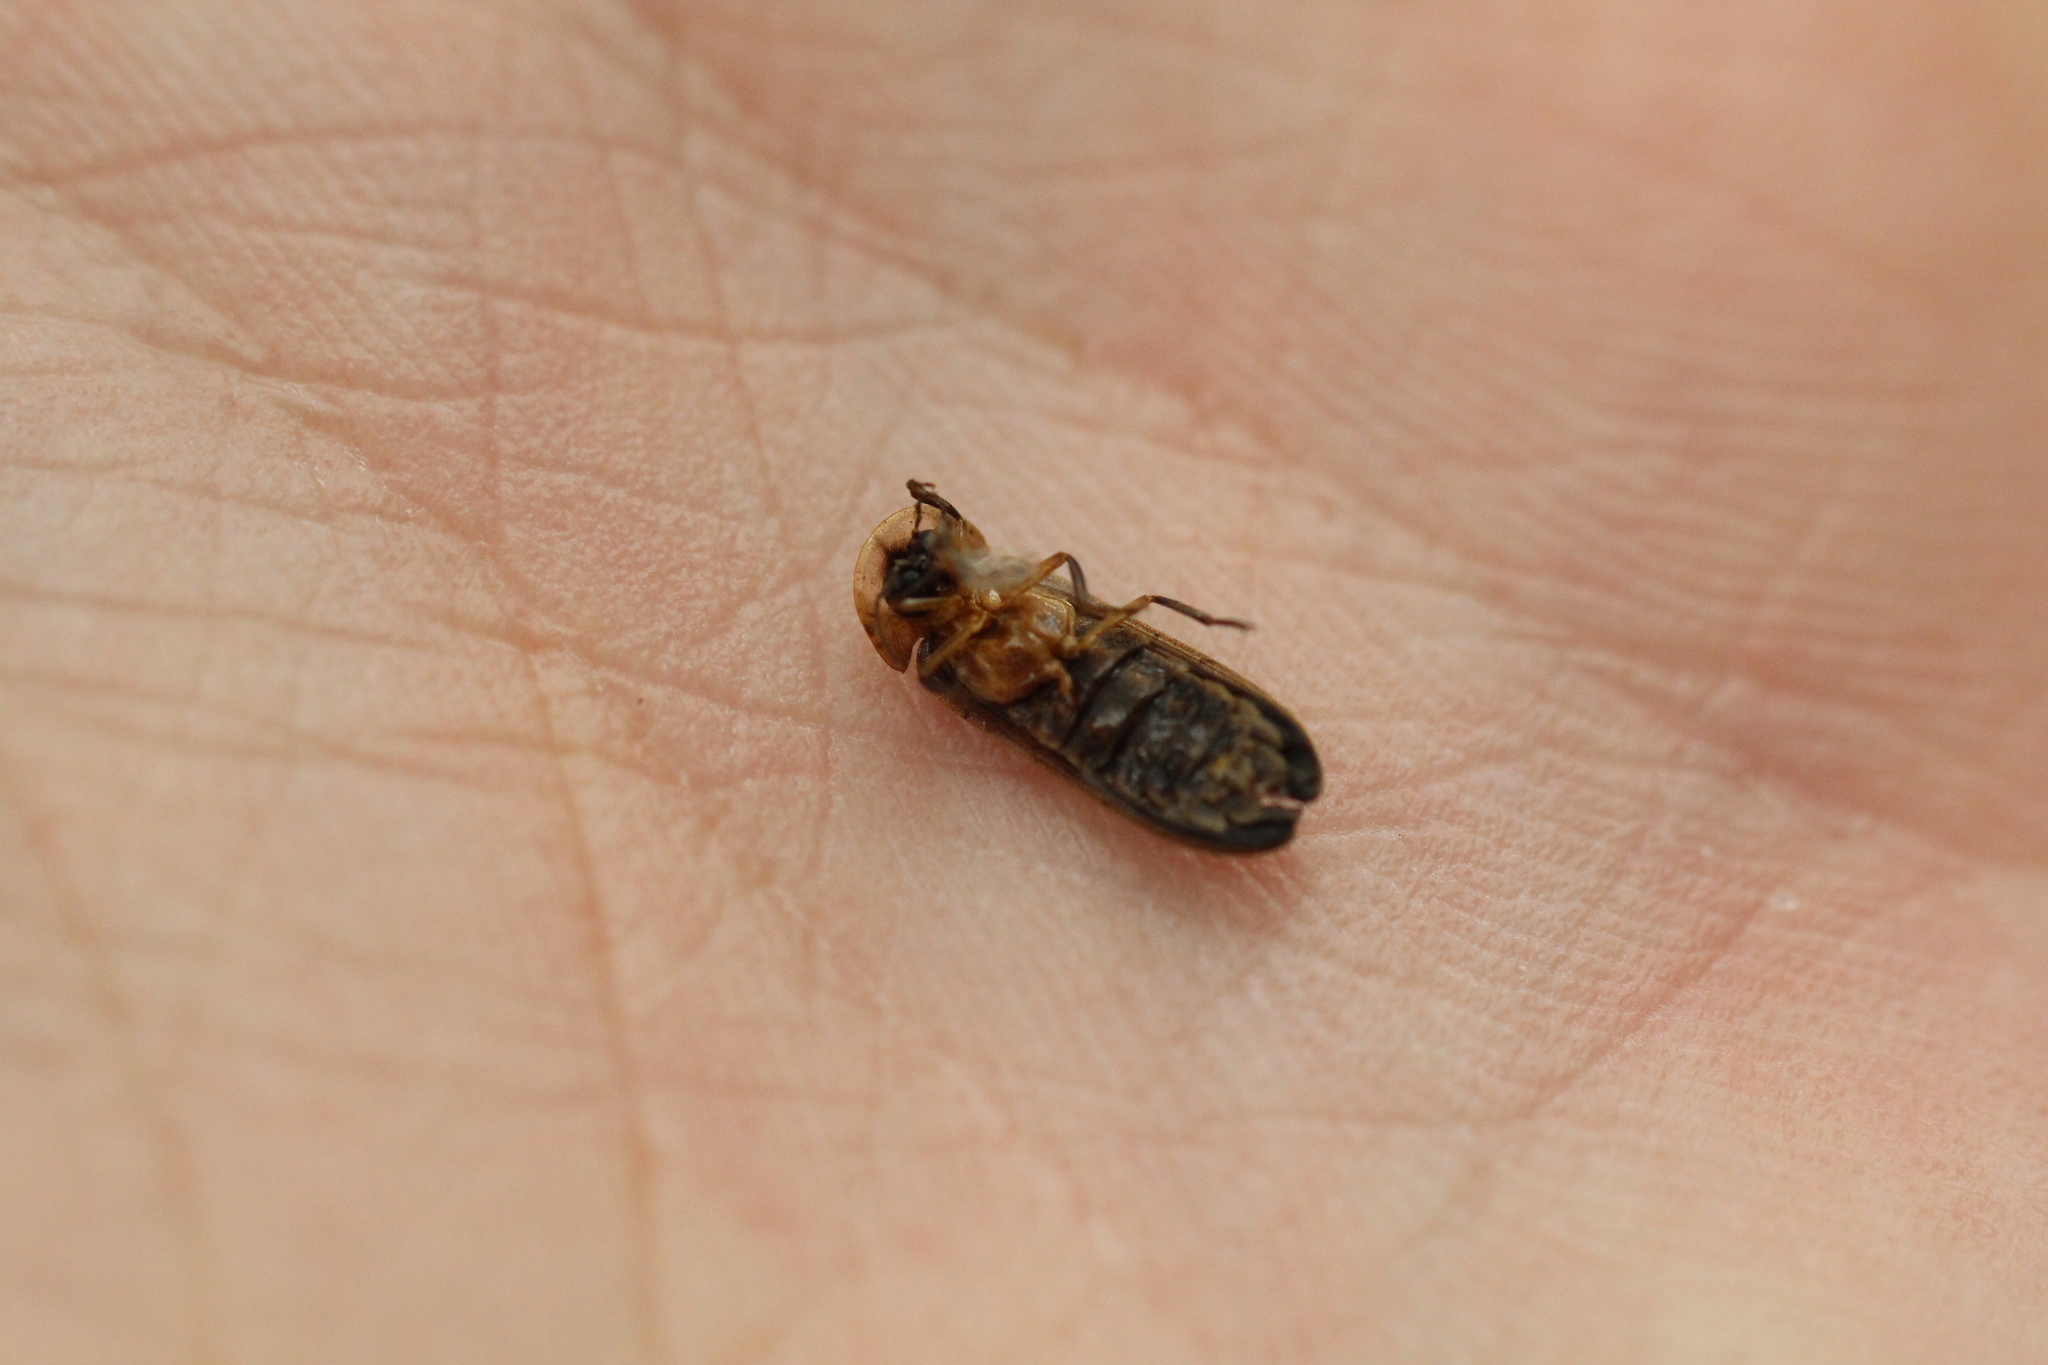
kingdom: Animalia
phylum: Arthropoda
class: Insecta
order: Coleoptera
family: Lampyridae
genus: Lamprohiza
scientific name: Lamprohiza mulsantii
